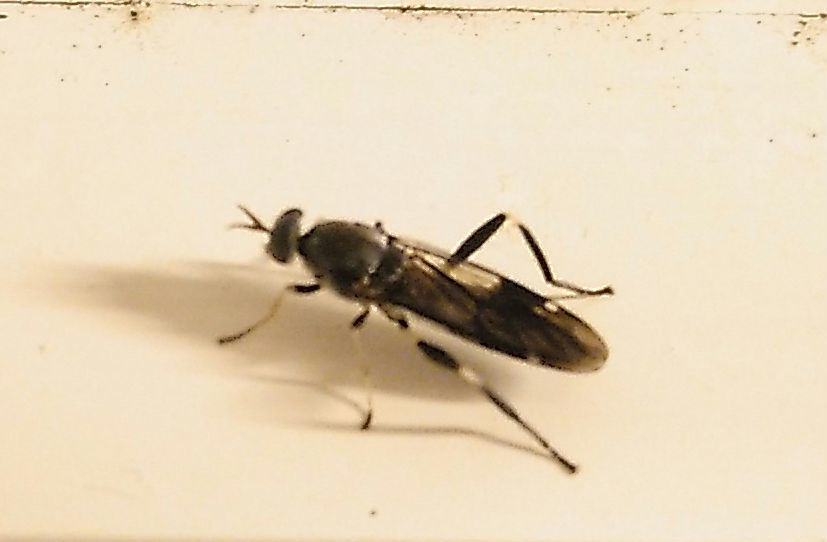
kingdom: Animalia
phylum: Arthropoda
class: Insecta
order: Diptera
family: Stratiomyidae
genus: Exaireta
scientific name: Exaireta spinigera
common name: Blue soldier fly
